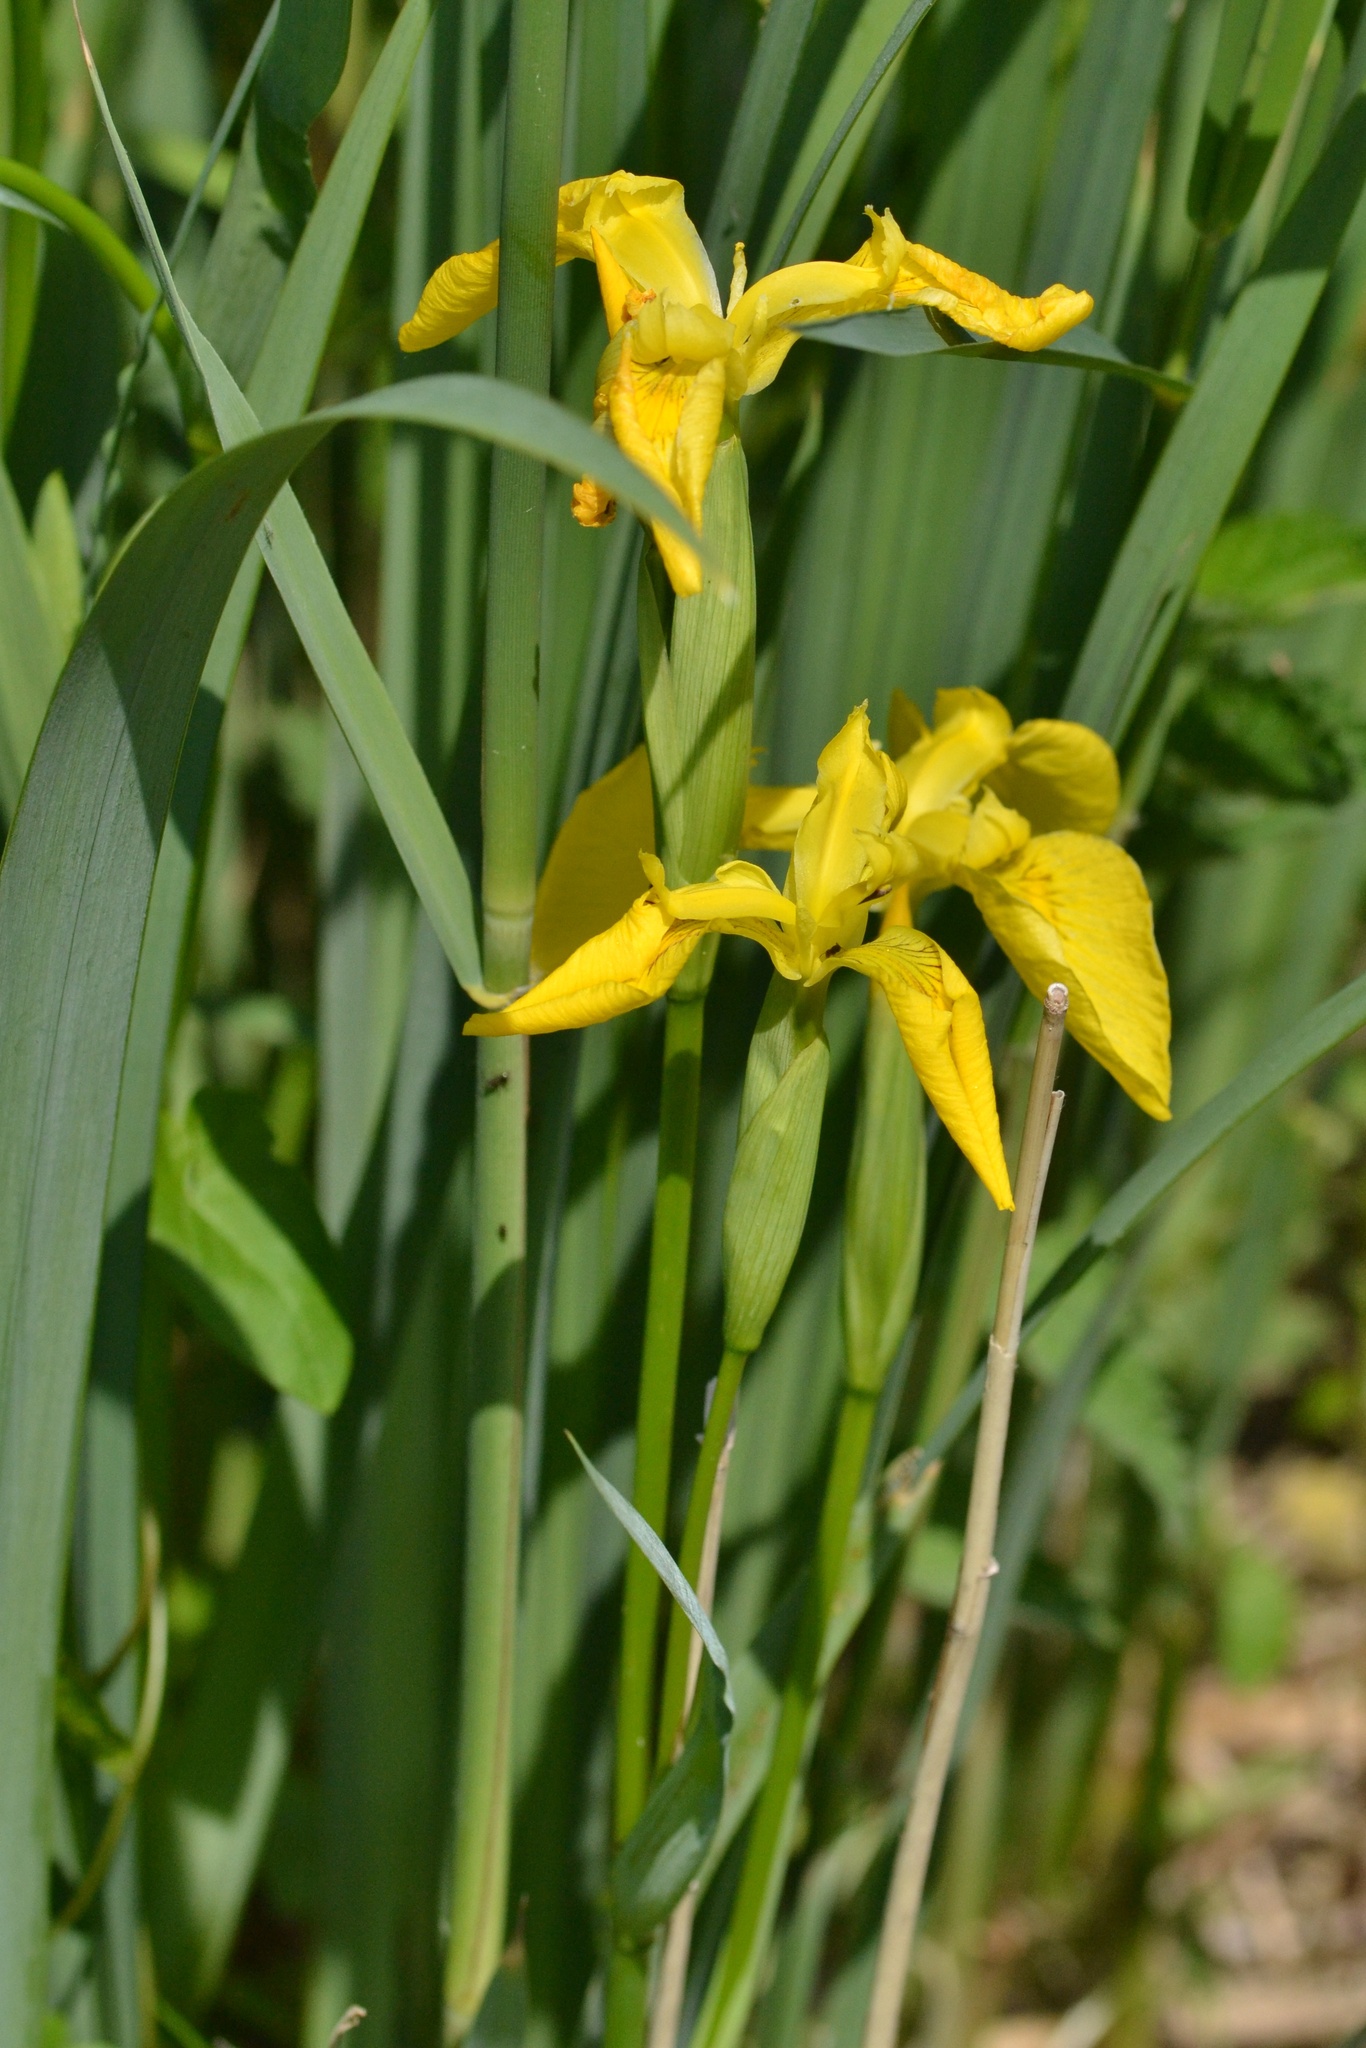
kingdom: Plantae
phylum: Tracheophyta
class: Liliopsida
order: Asparagales
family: Iridaceae
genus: Iris
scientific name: Iris pseudacorus
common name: Yellow flag
